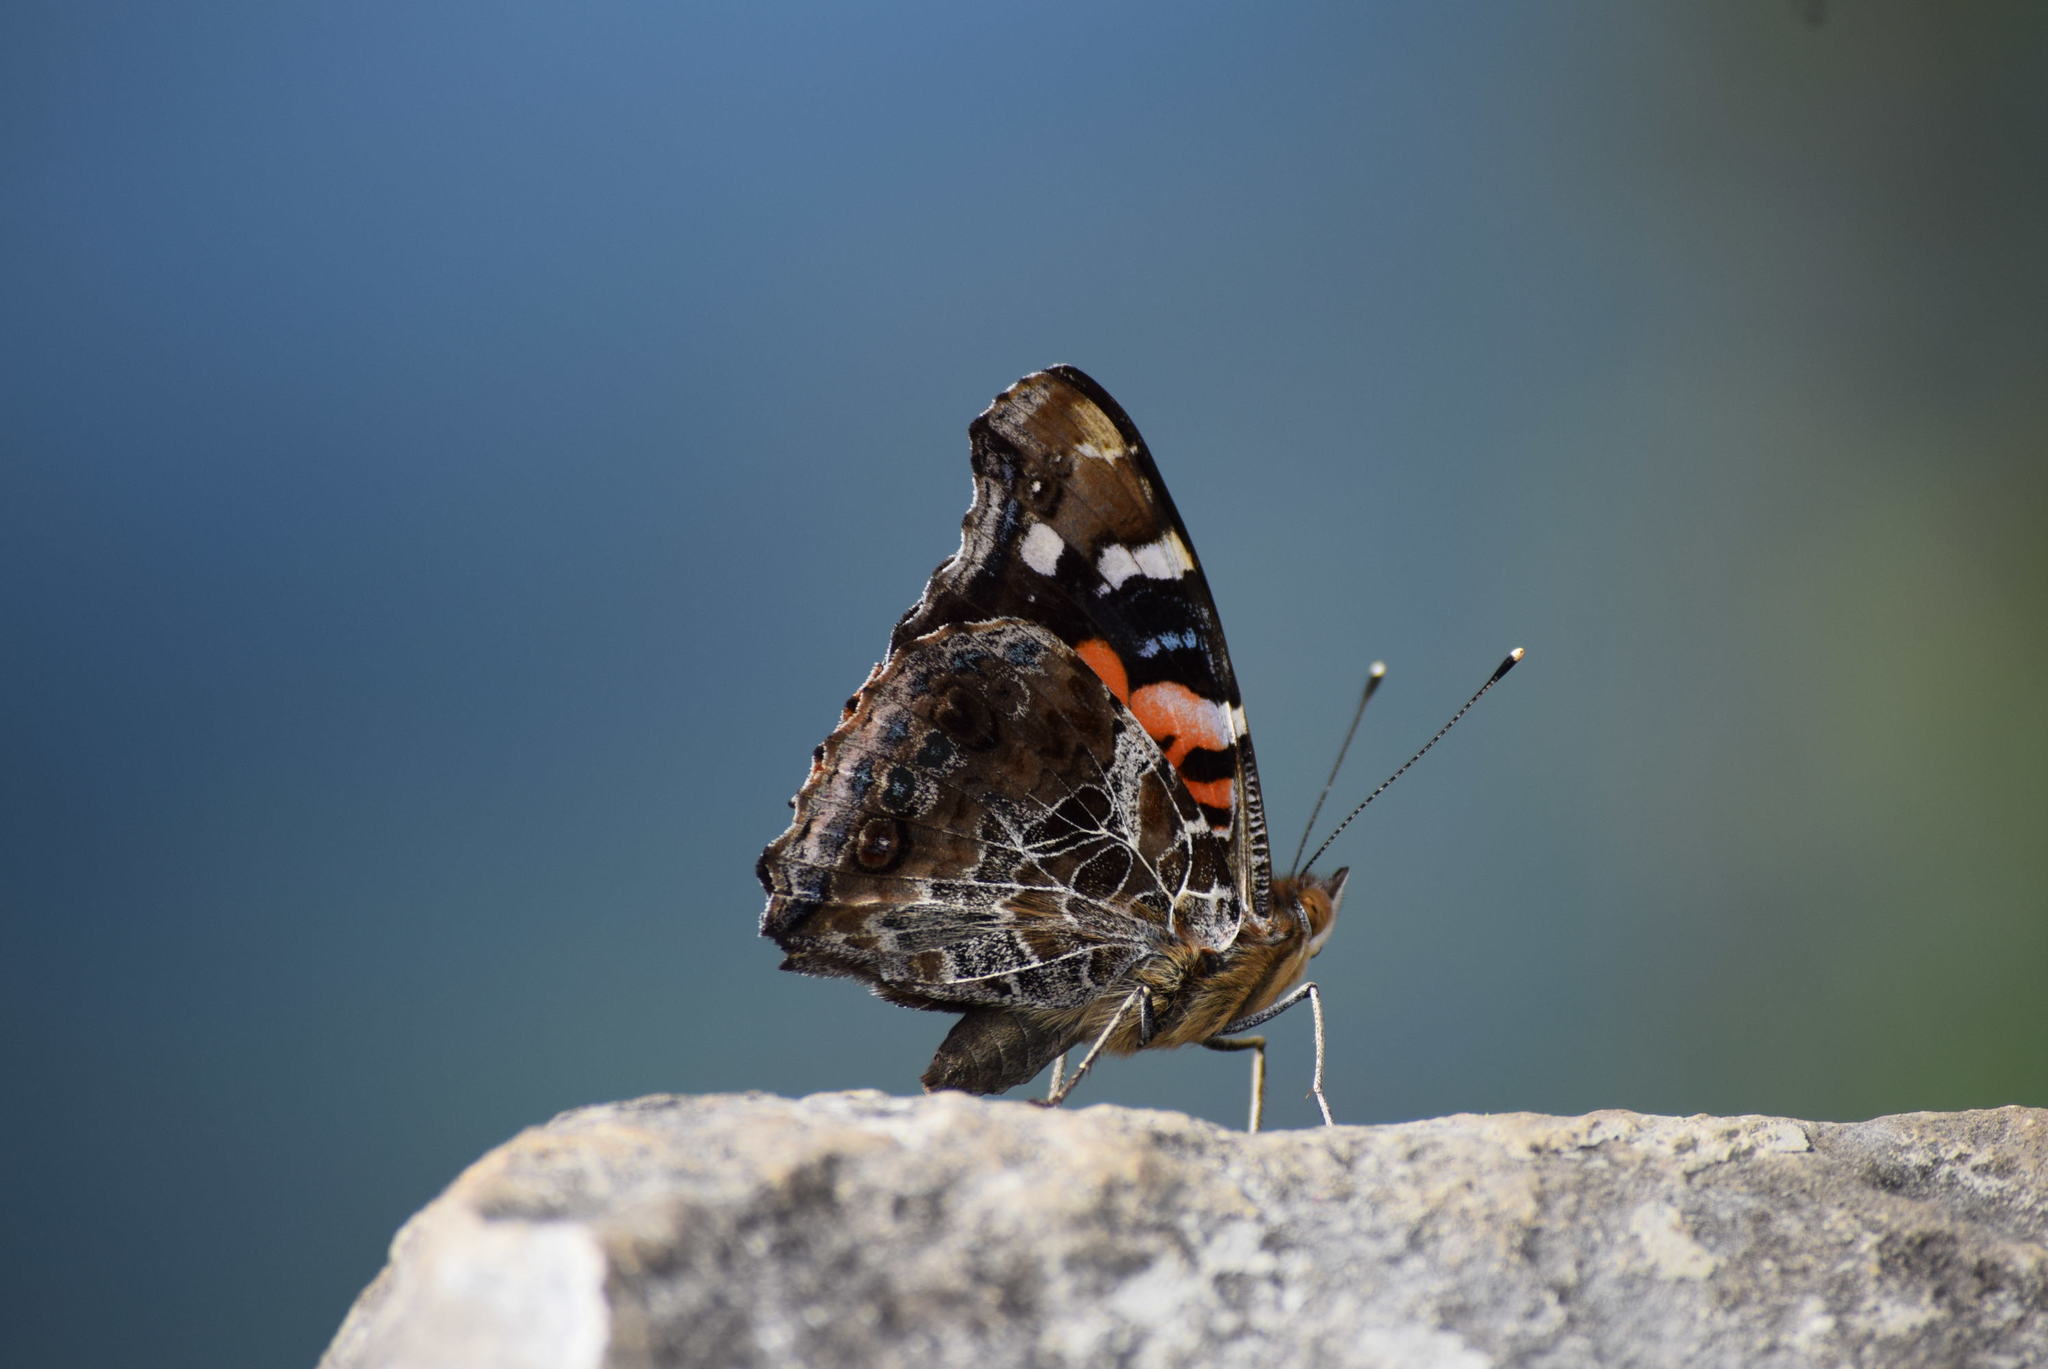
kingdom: Animalia
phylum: Arthropoda
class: Insecta
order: Lepidoptera
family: Nymphalidae
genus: Vanessa
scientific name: Vanessa indica
